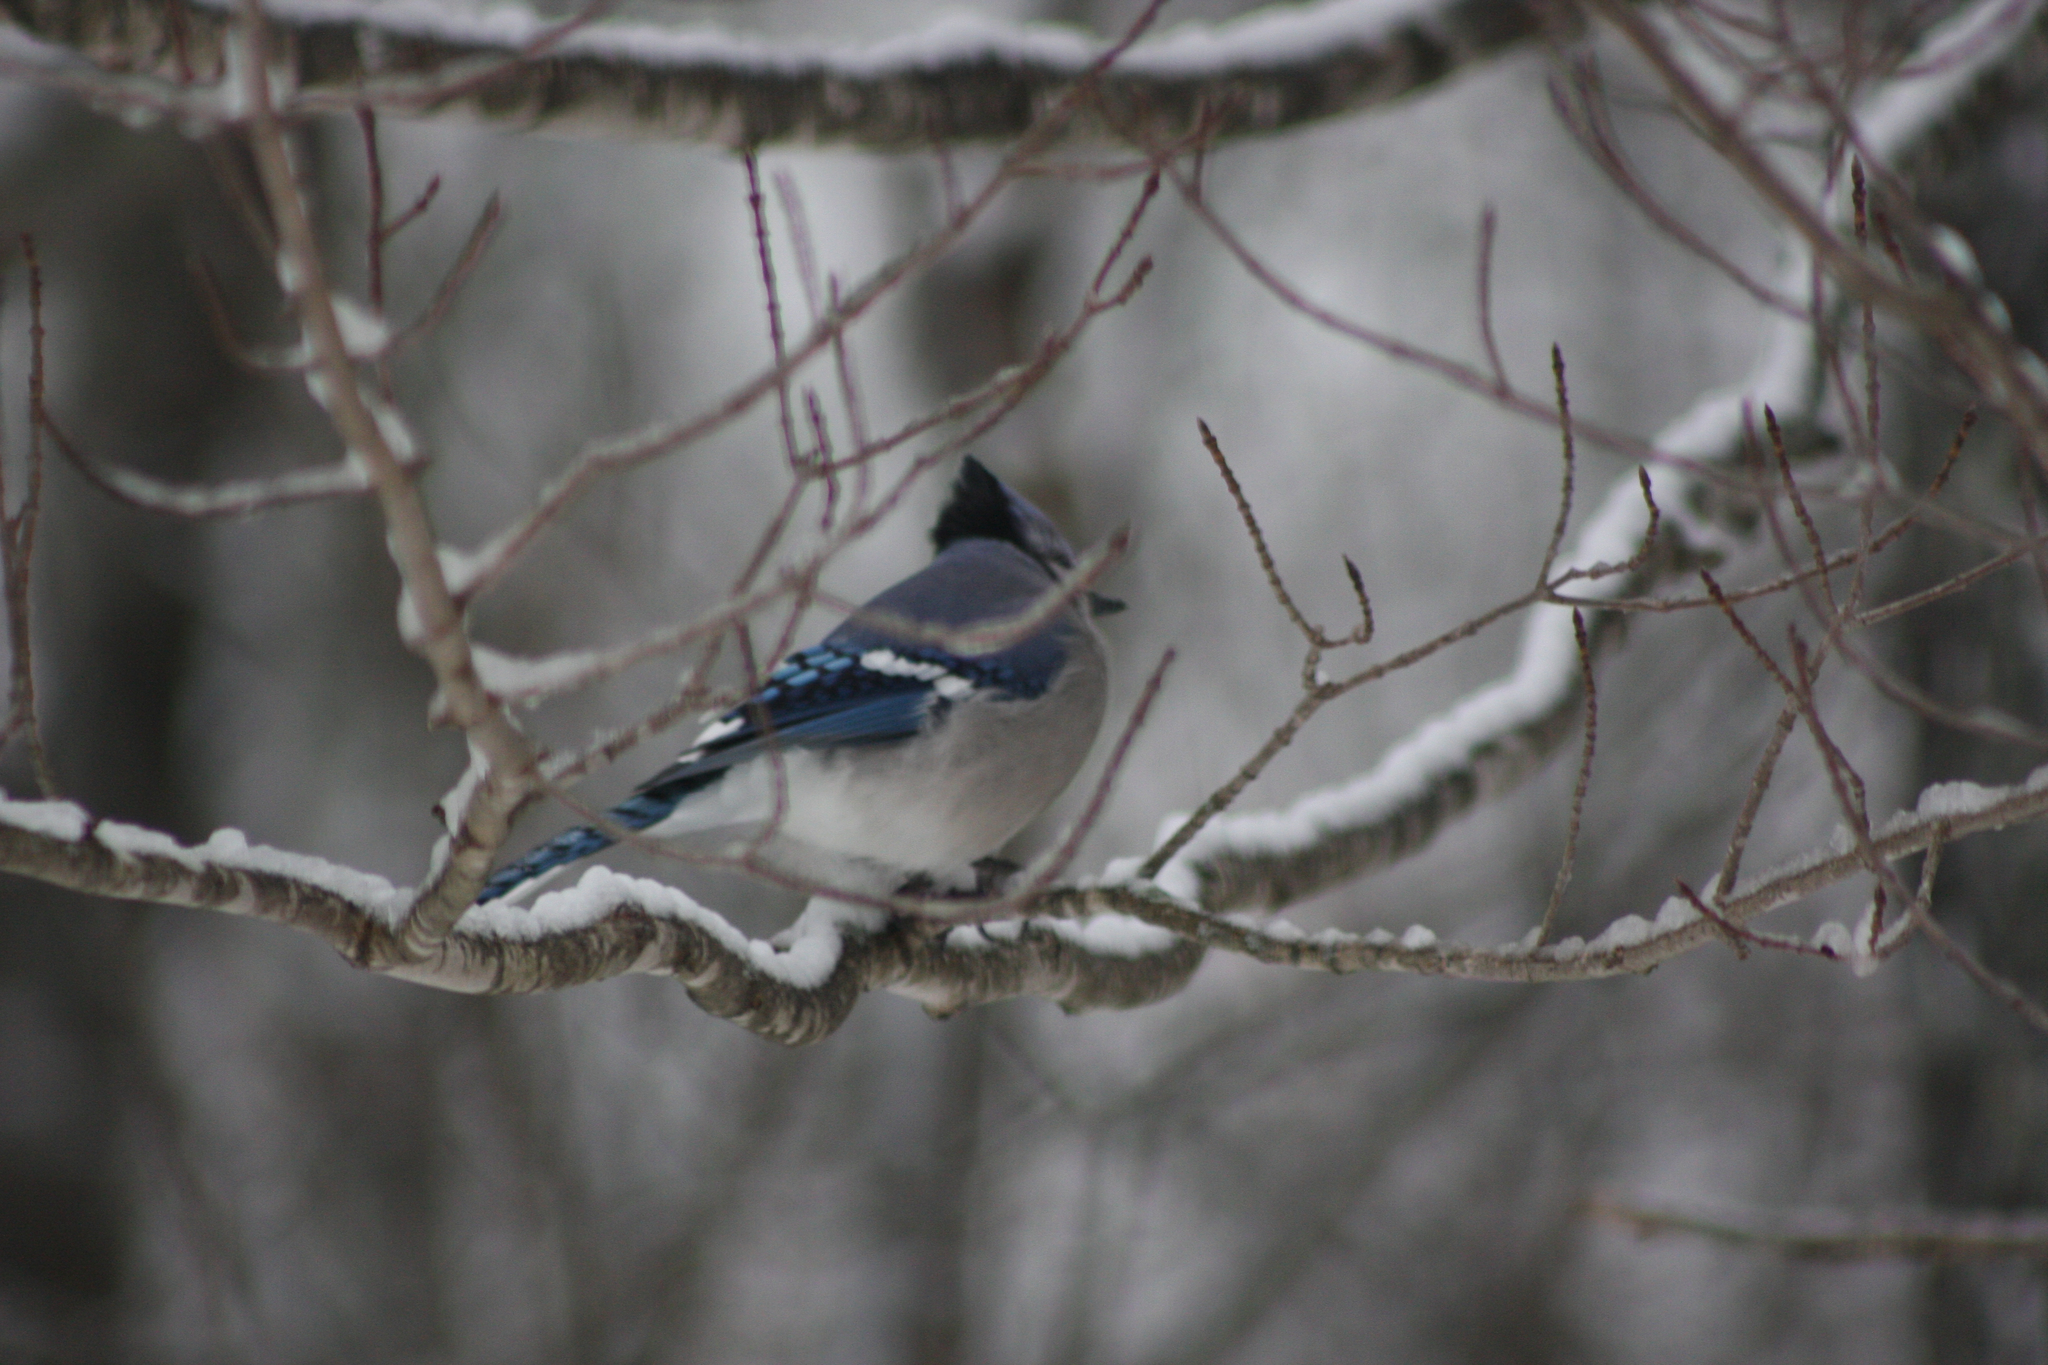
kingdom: Animalia
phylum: Chordata
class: Aves
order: Passeriformes
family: Corvidae
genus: Cyanocitta
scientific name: Cyanocitta cristata
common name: Blue jay
